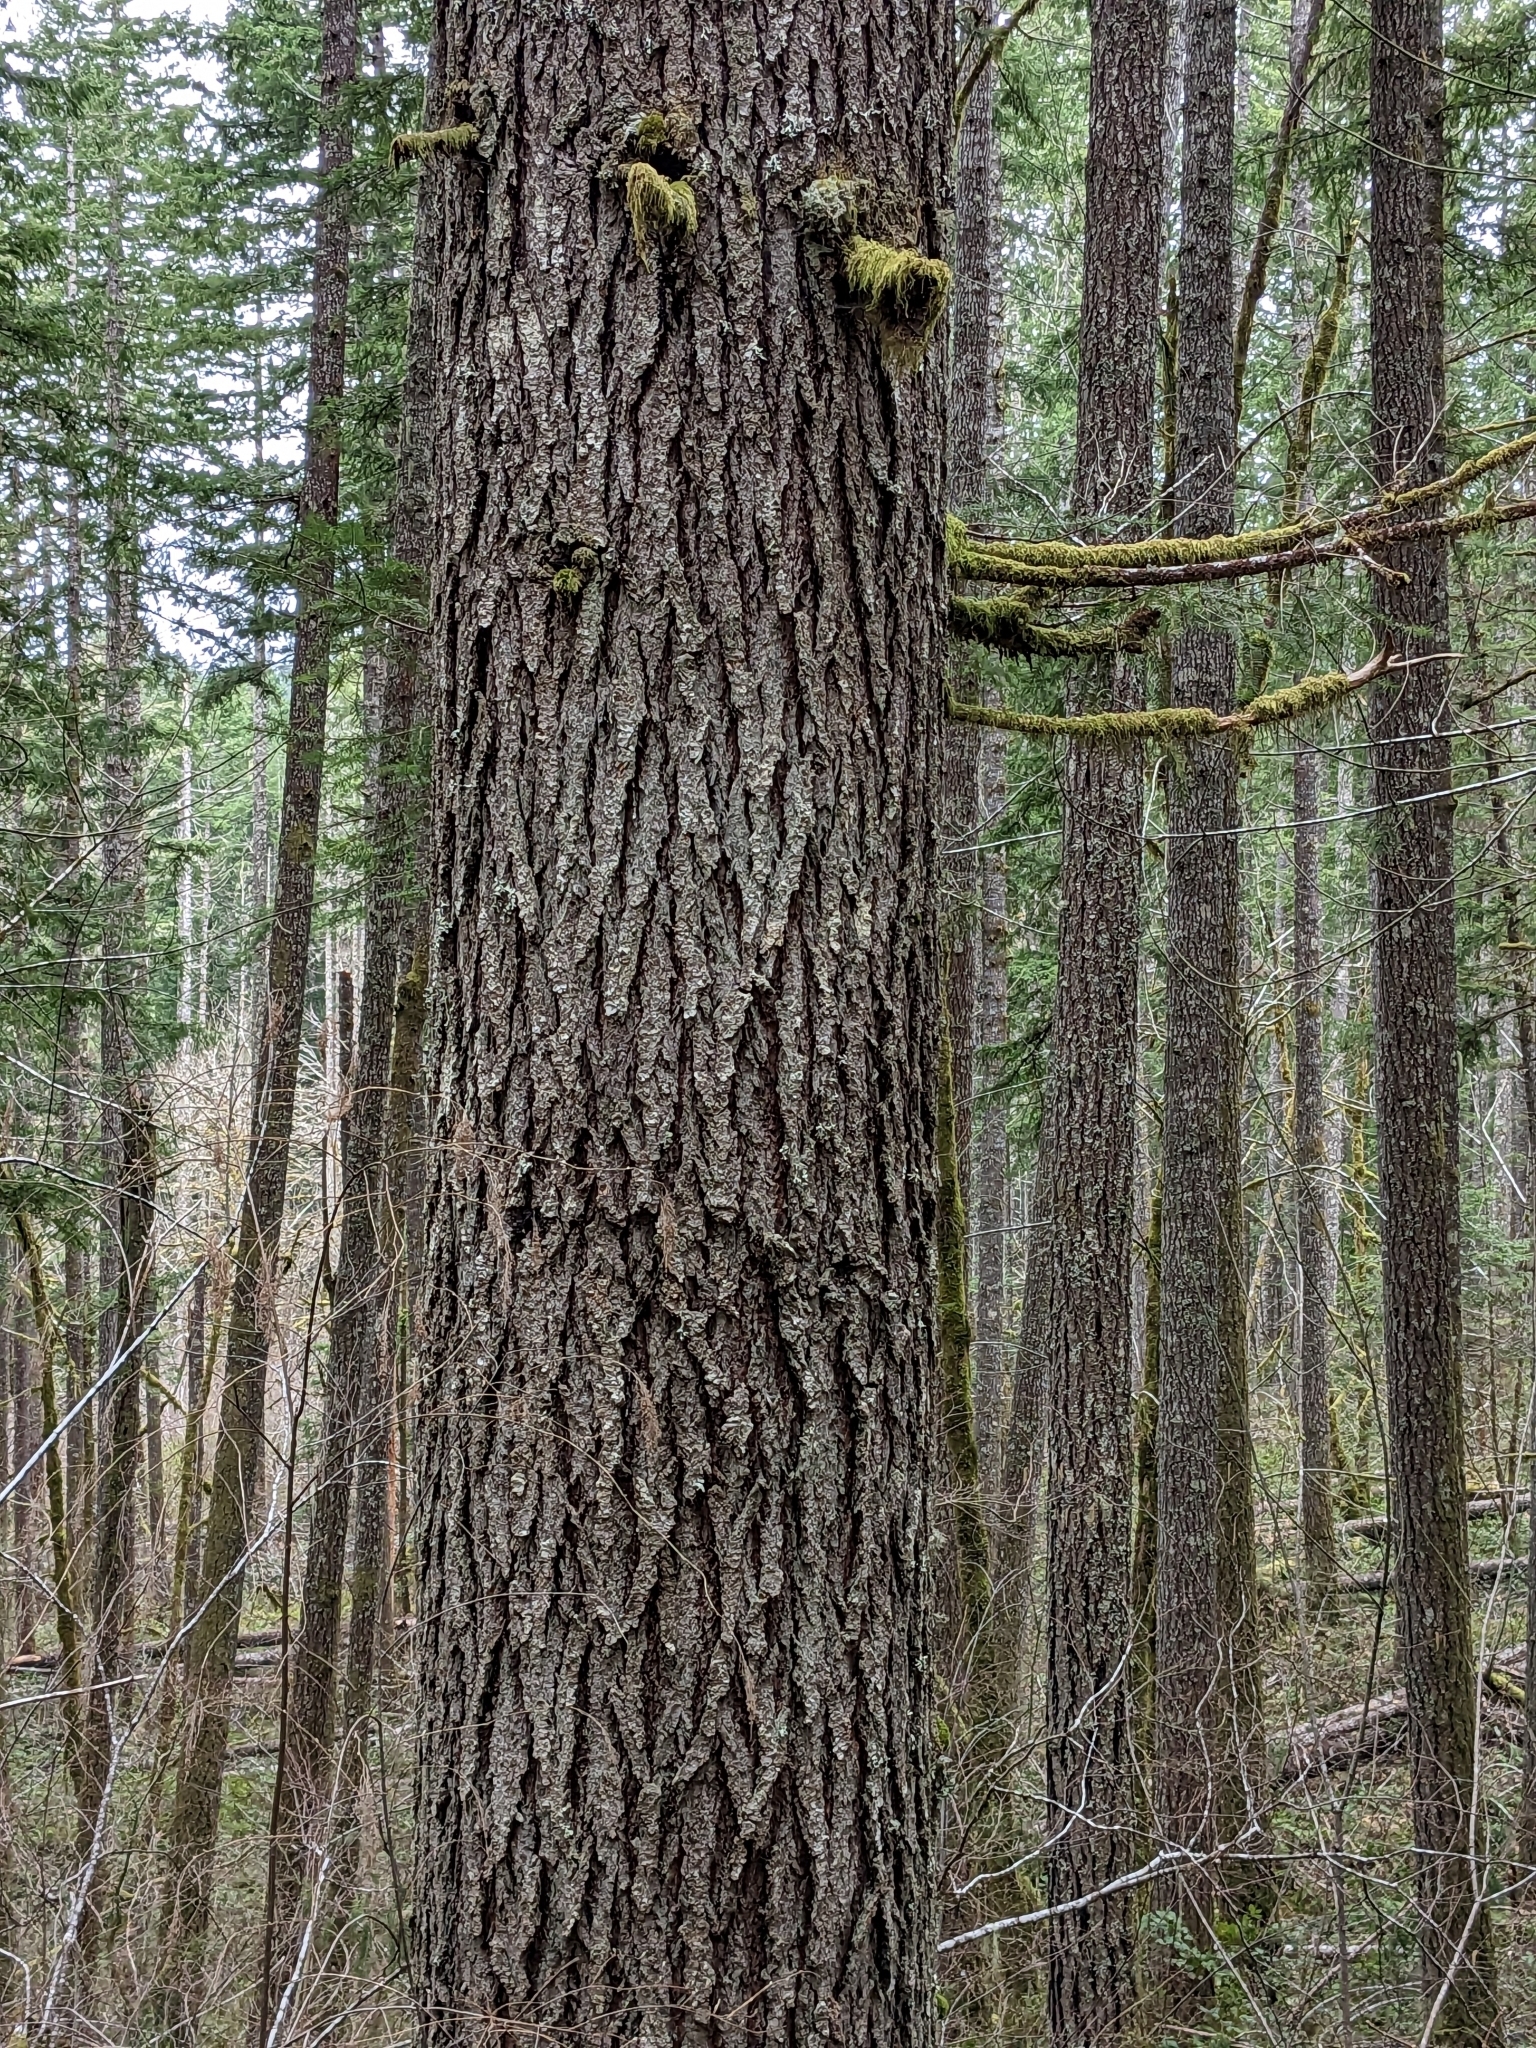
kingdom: Plantae
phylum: Tracheophyta
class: Pinopsida
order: Pinales
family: Pinaceae
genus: Pseudotsuga
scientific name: Pseudotsuga menziesii
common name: Douglas fir
